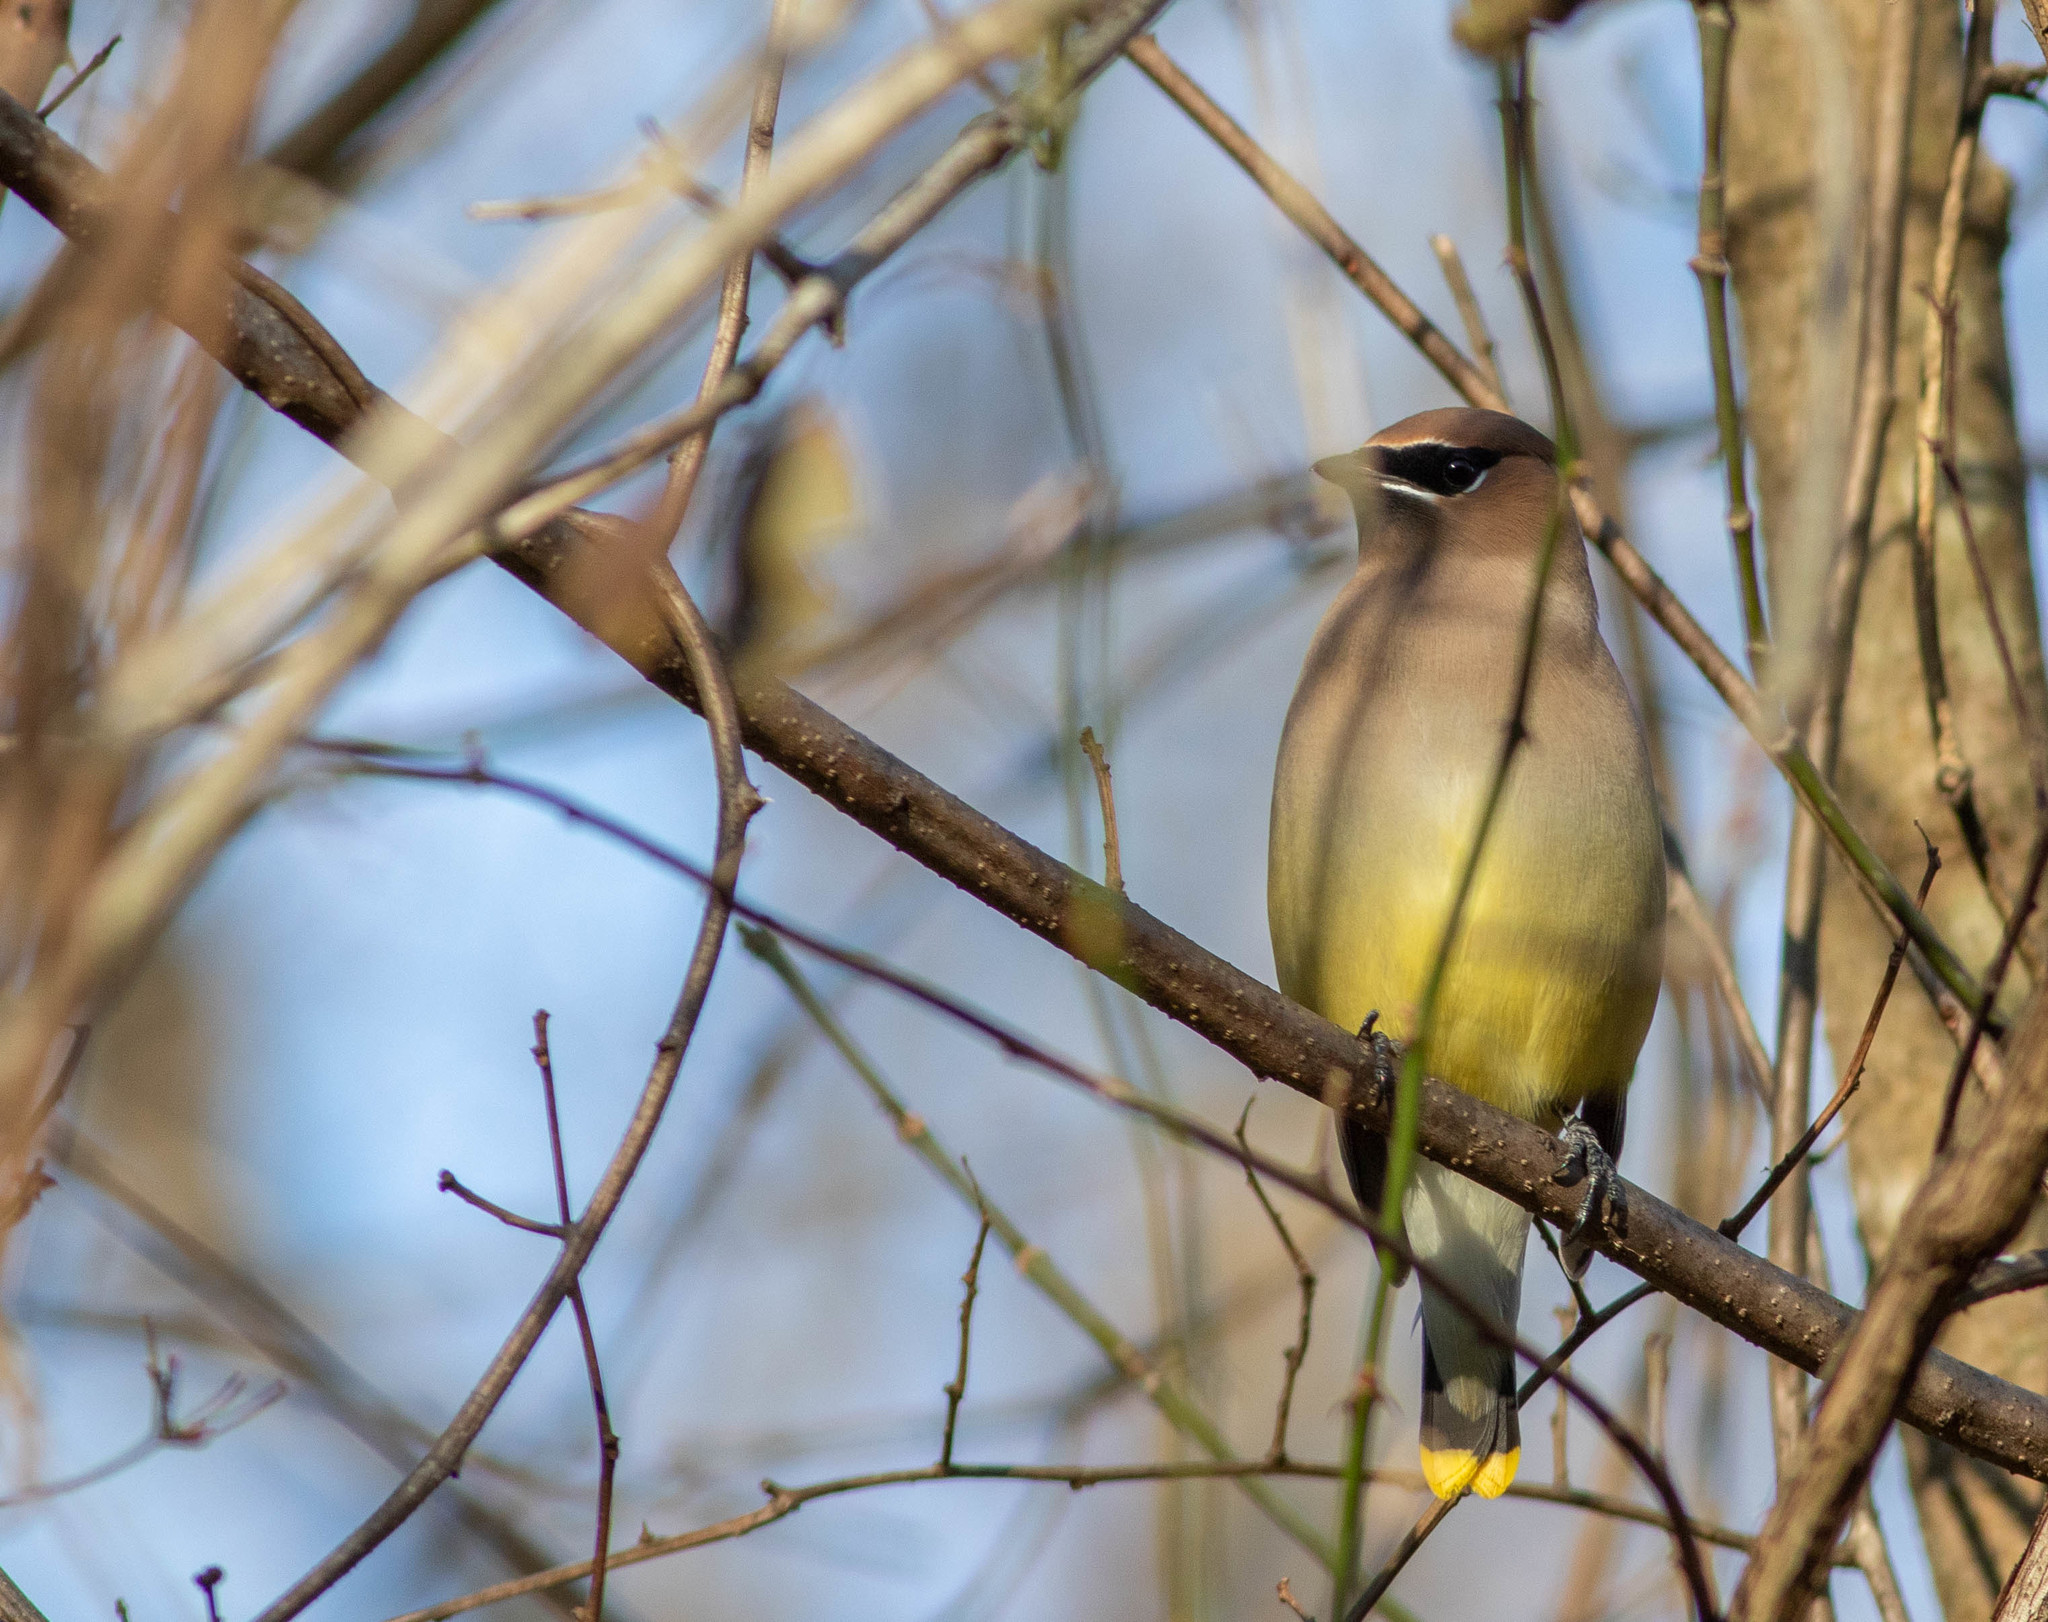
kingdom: Animalia
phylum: Chordata
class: Aves
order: Passeriformes
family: Bombycillidae
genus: Bombycilla
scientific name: Bombycilla cedrorum
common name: Cedar waxwing
